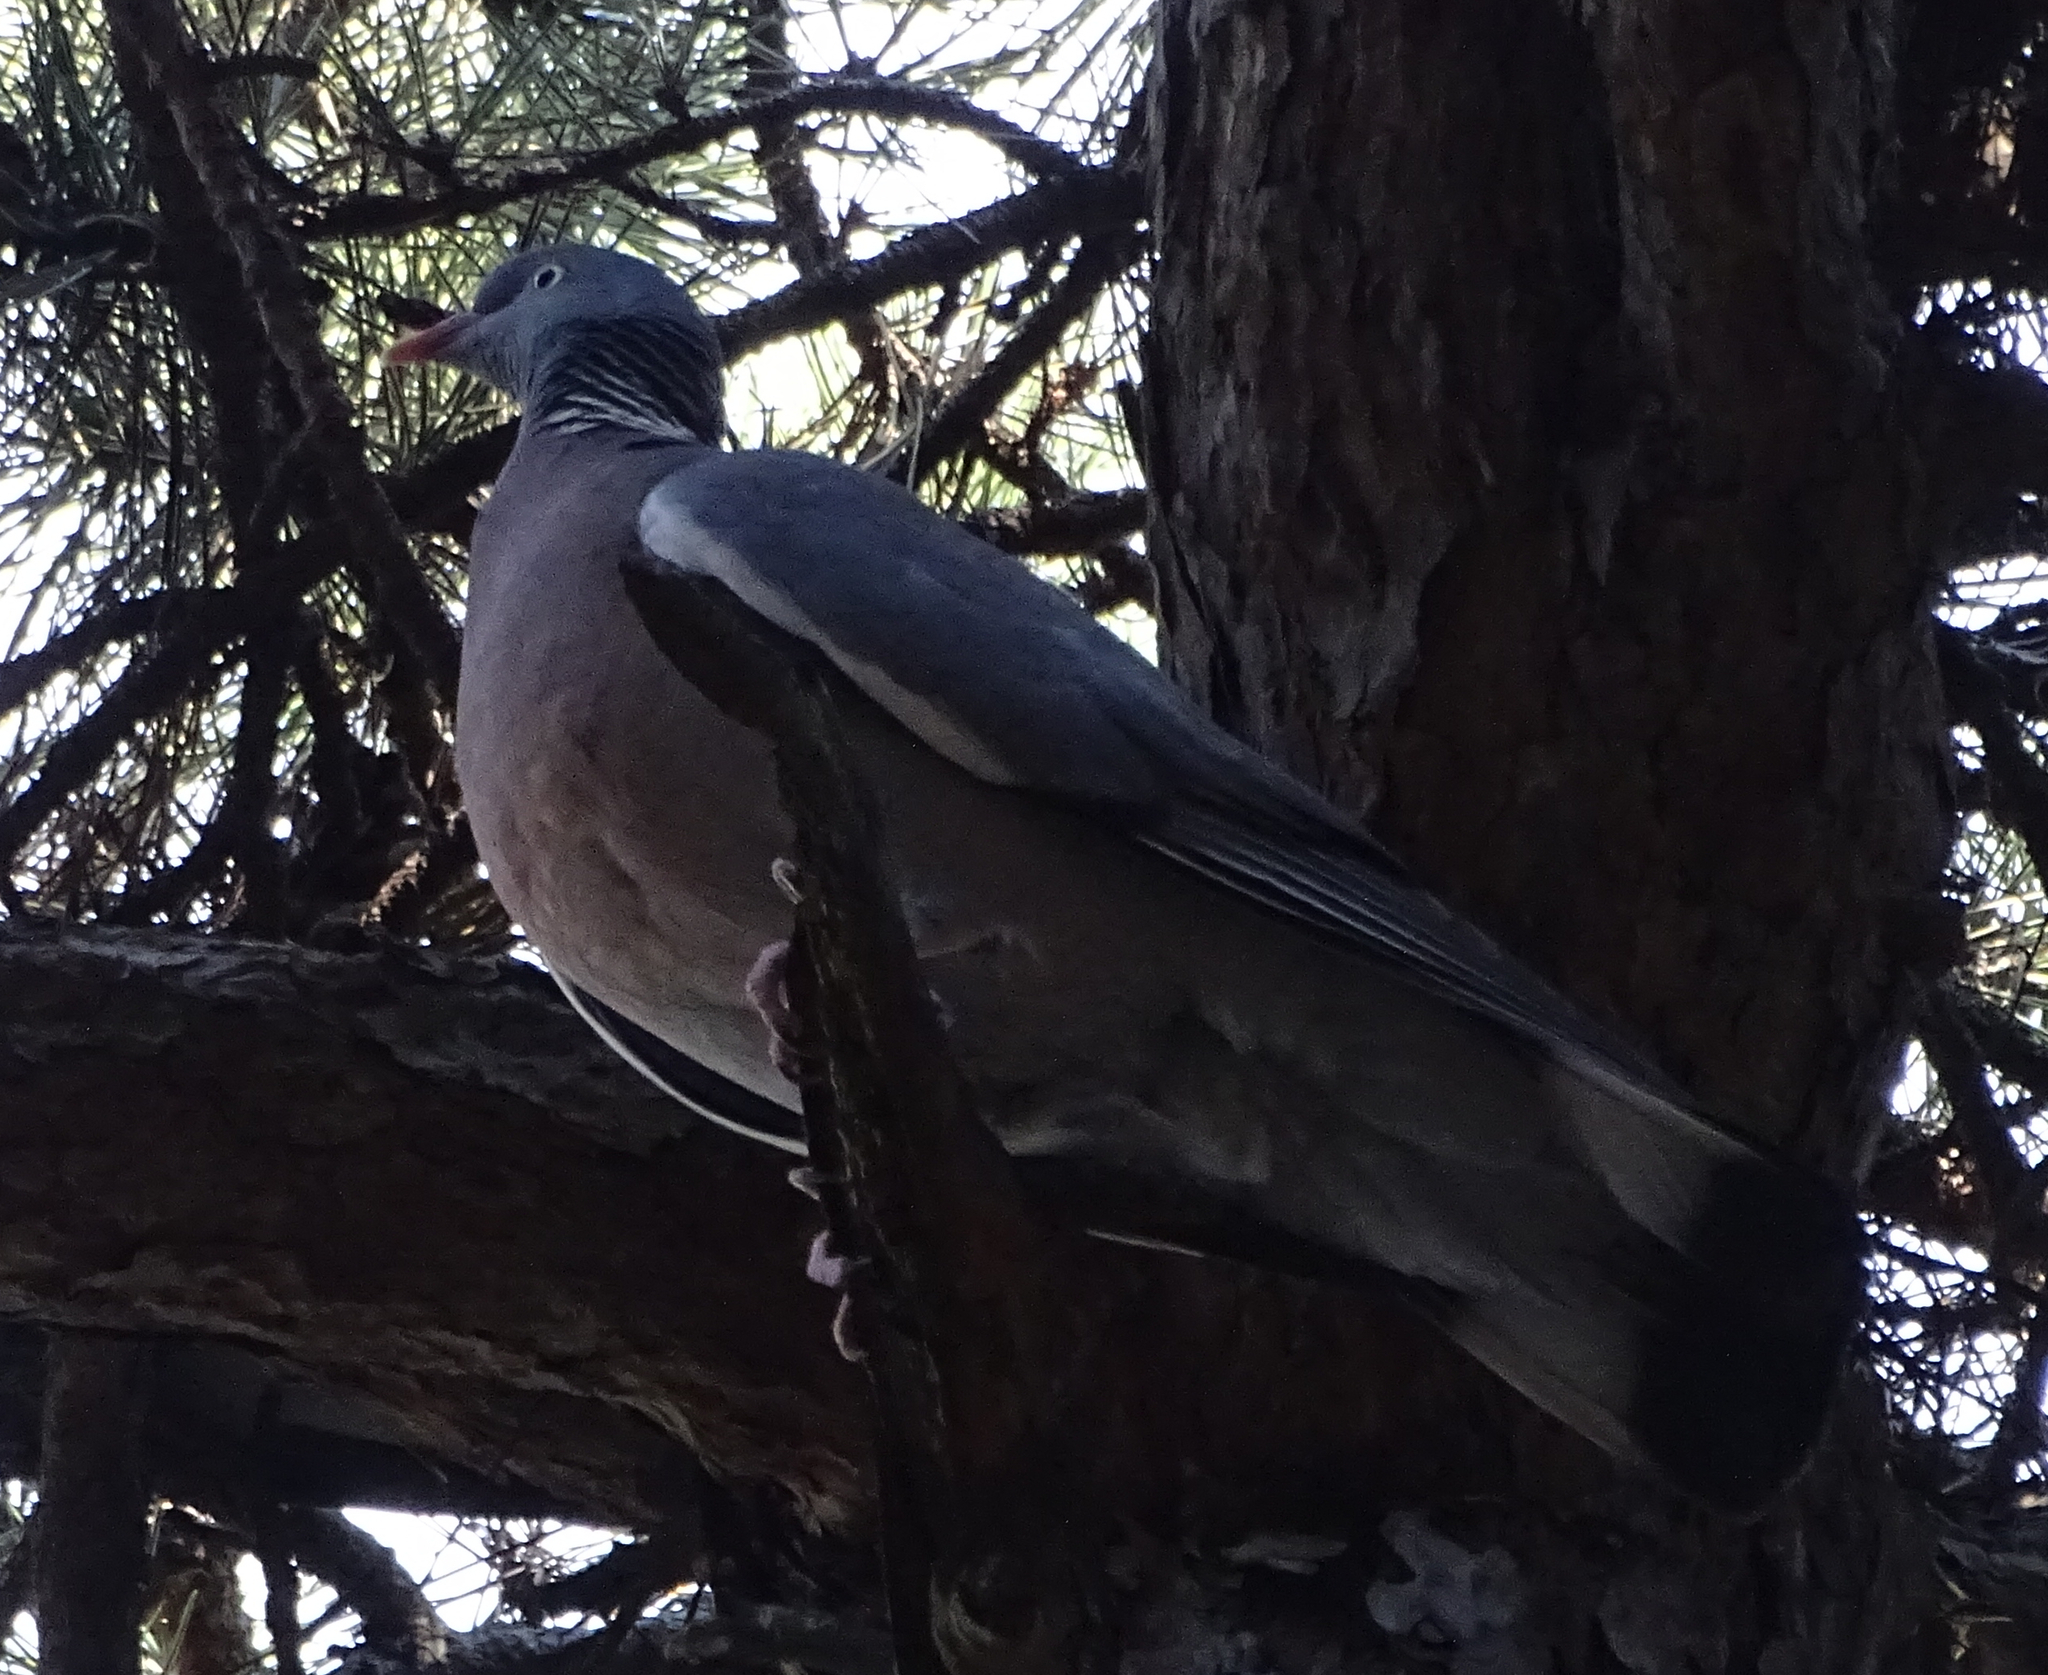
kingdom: Animalia
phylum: Chordata
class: Aves
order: Columbiformes
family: Columbidae
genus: Columba
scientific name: Columba palumbus
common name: Common wood pigeon
